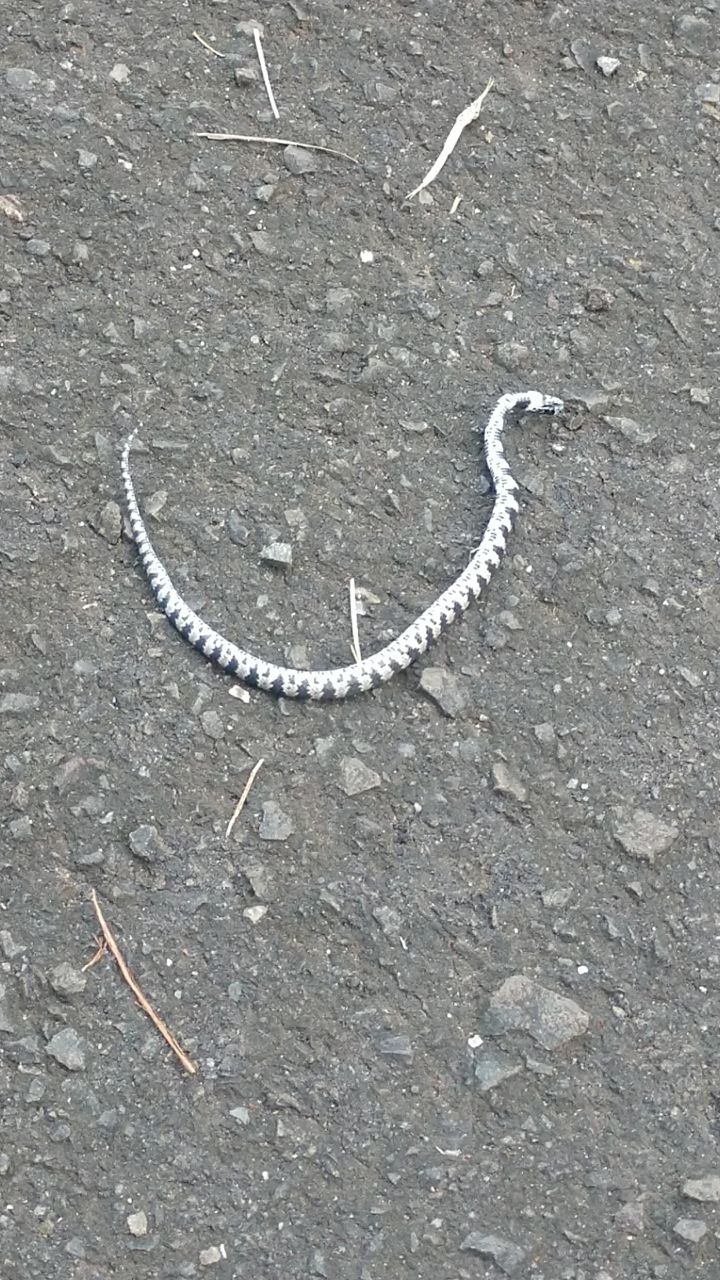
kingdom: Animalia
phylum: Chordata
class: Squamata
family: Colubridae
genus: Dipsas
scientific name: Dipsas mikanii
